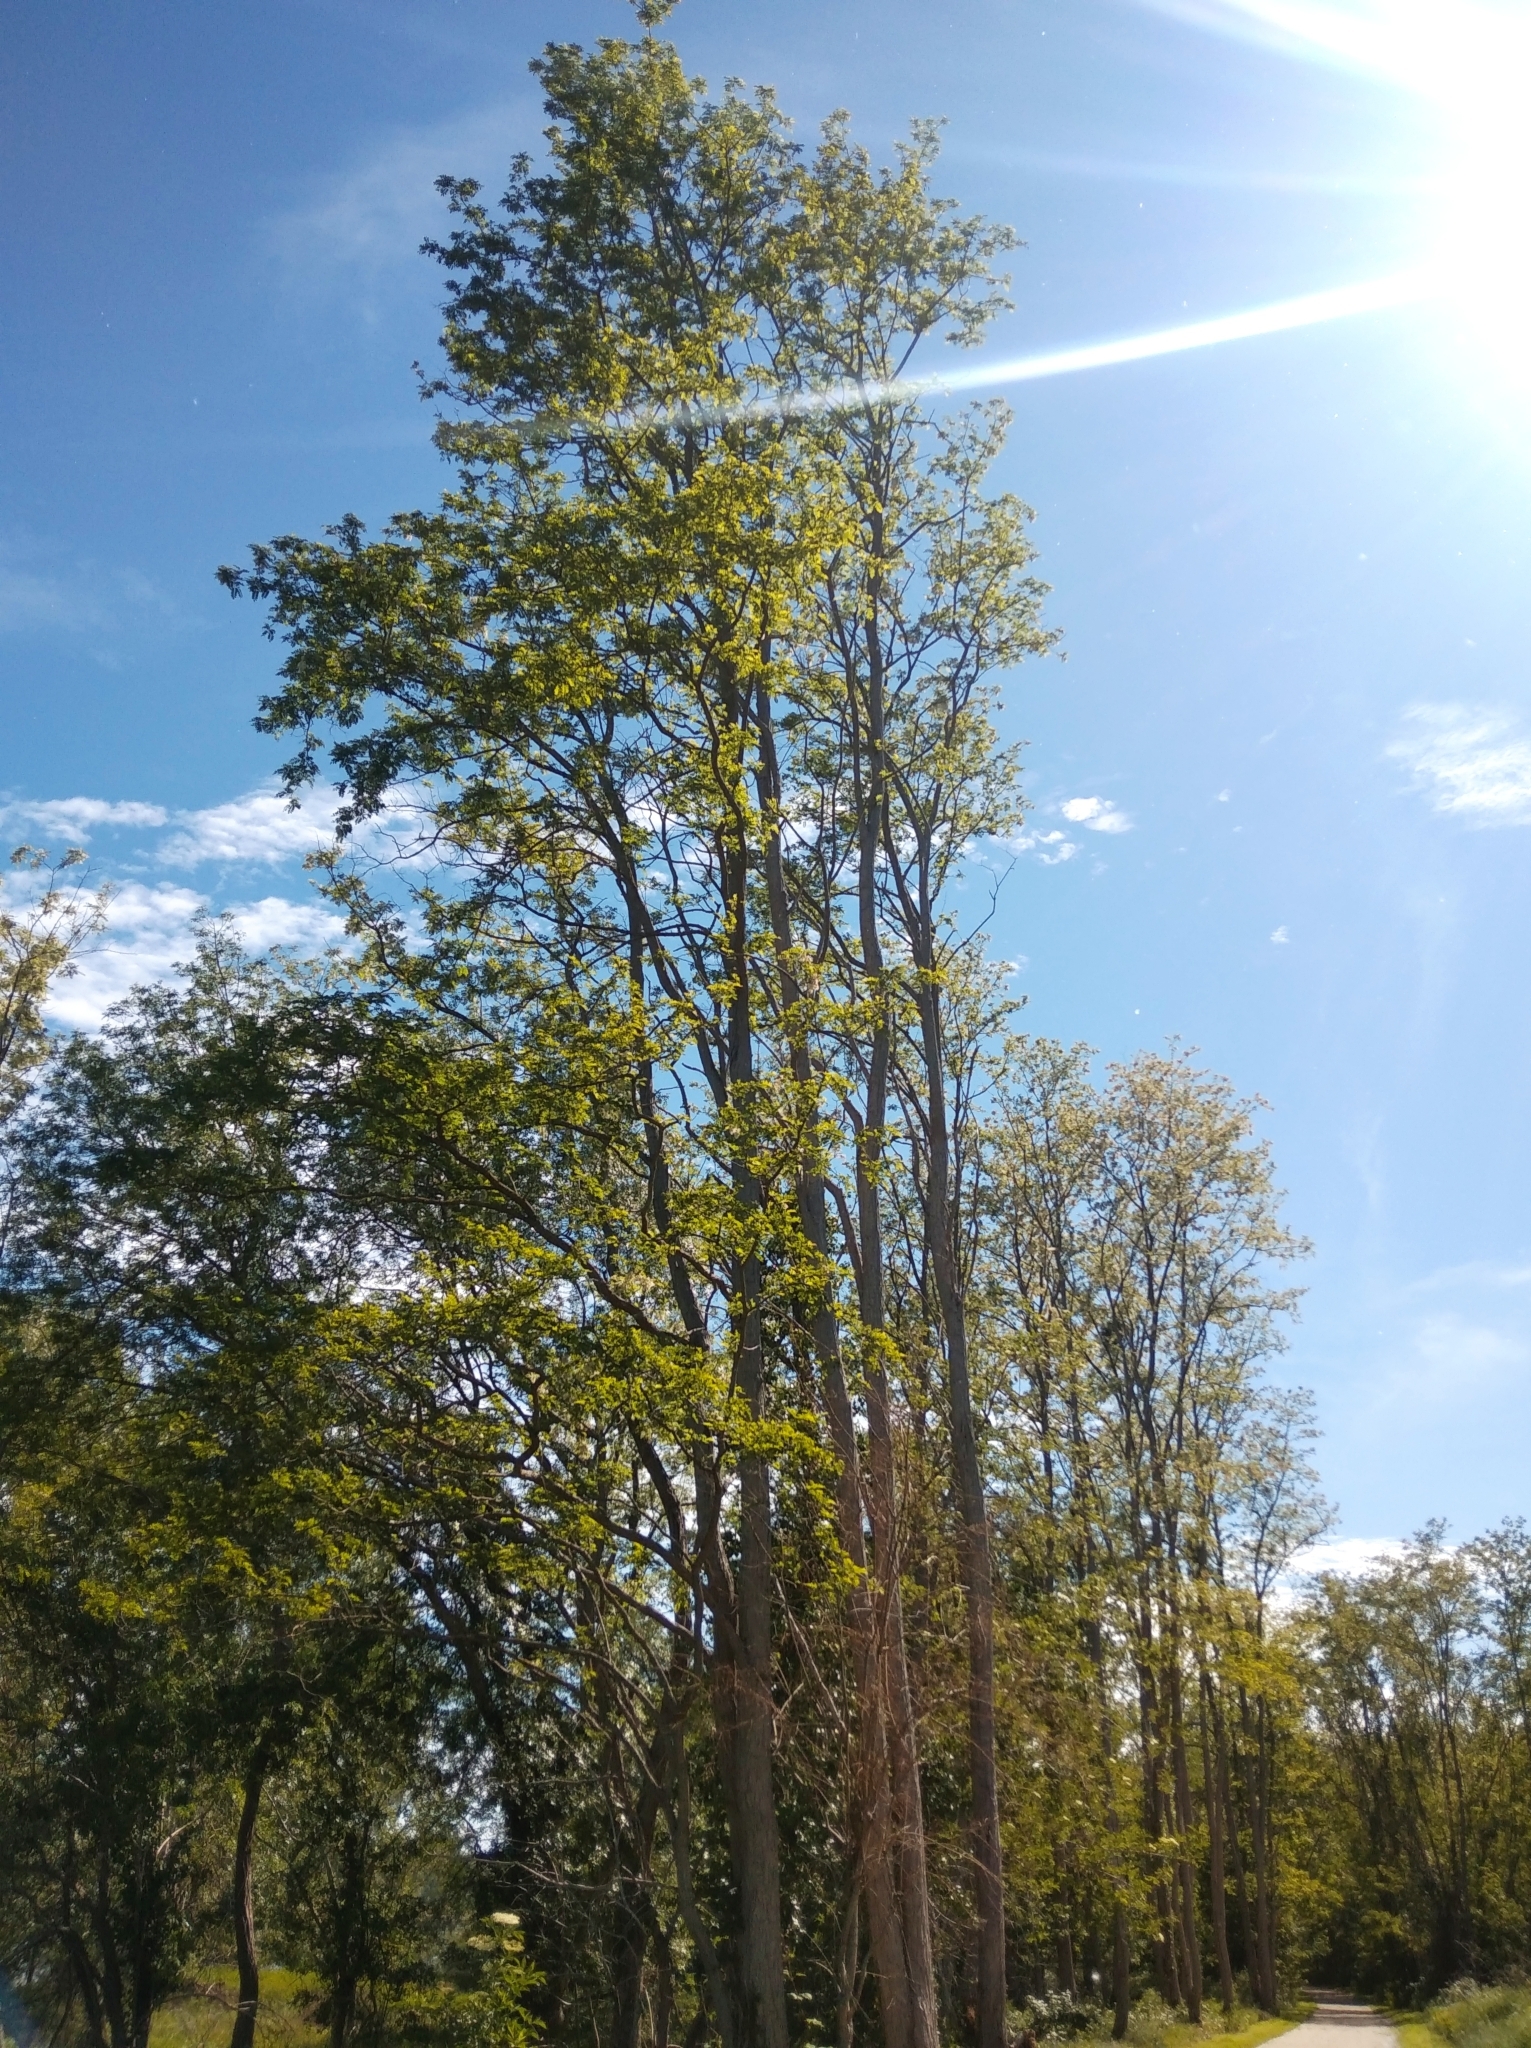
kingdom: Plantae
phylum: Tracheophyta
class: Magnoliopsida
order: Dipsacales
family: Viburnaceae
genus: Sambucus
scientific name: Sambucus nigra
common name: Elder
